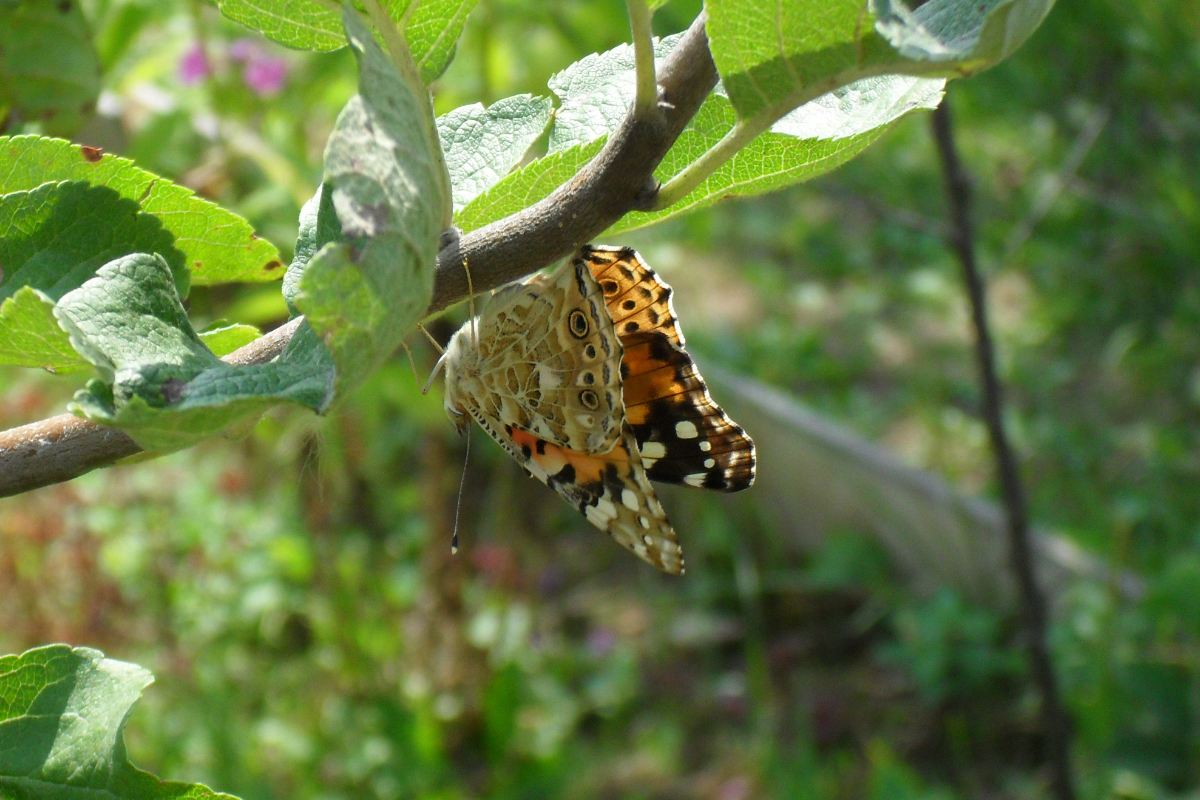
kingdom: Animalia
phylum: Arthropoda
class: Insecta
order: Lepidoptera
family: Nymphalidae
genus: Vanessa
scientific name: Vanessa cardui
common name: Painted lady
